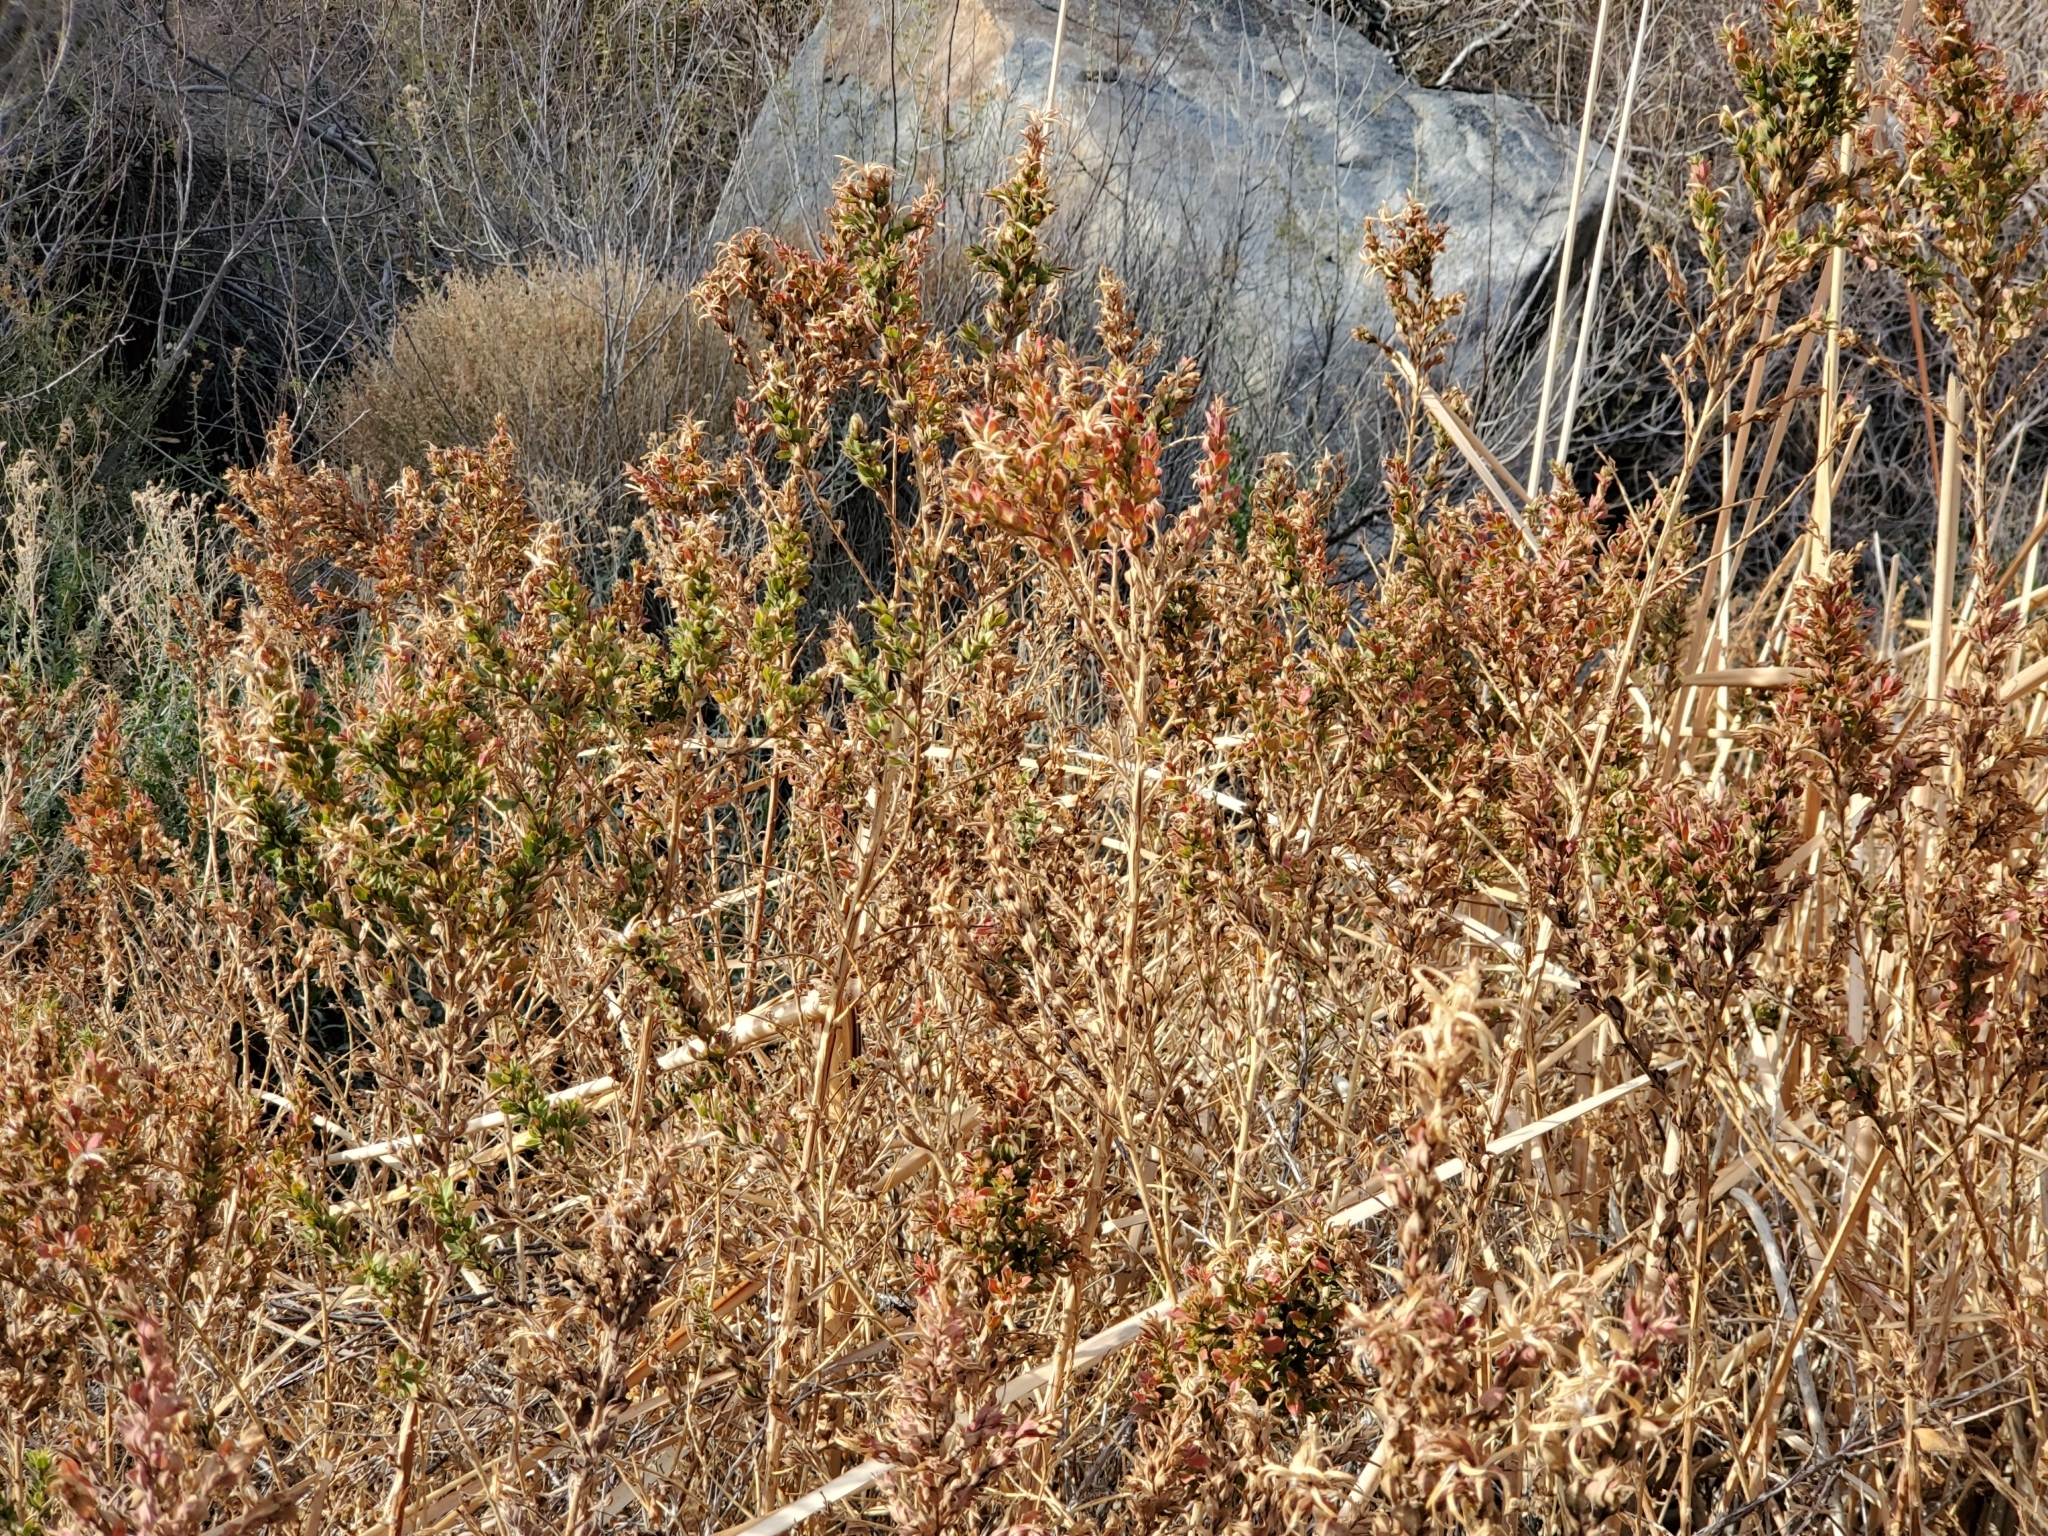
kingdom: Plantae
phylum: Tracheophyta
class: Magnoliopsida
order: Myrtales
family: Onagraceae
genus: Epilobium
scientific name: Epilobium canum
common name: California-fuchsia
